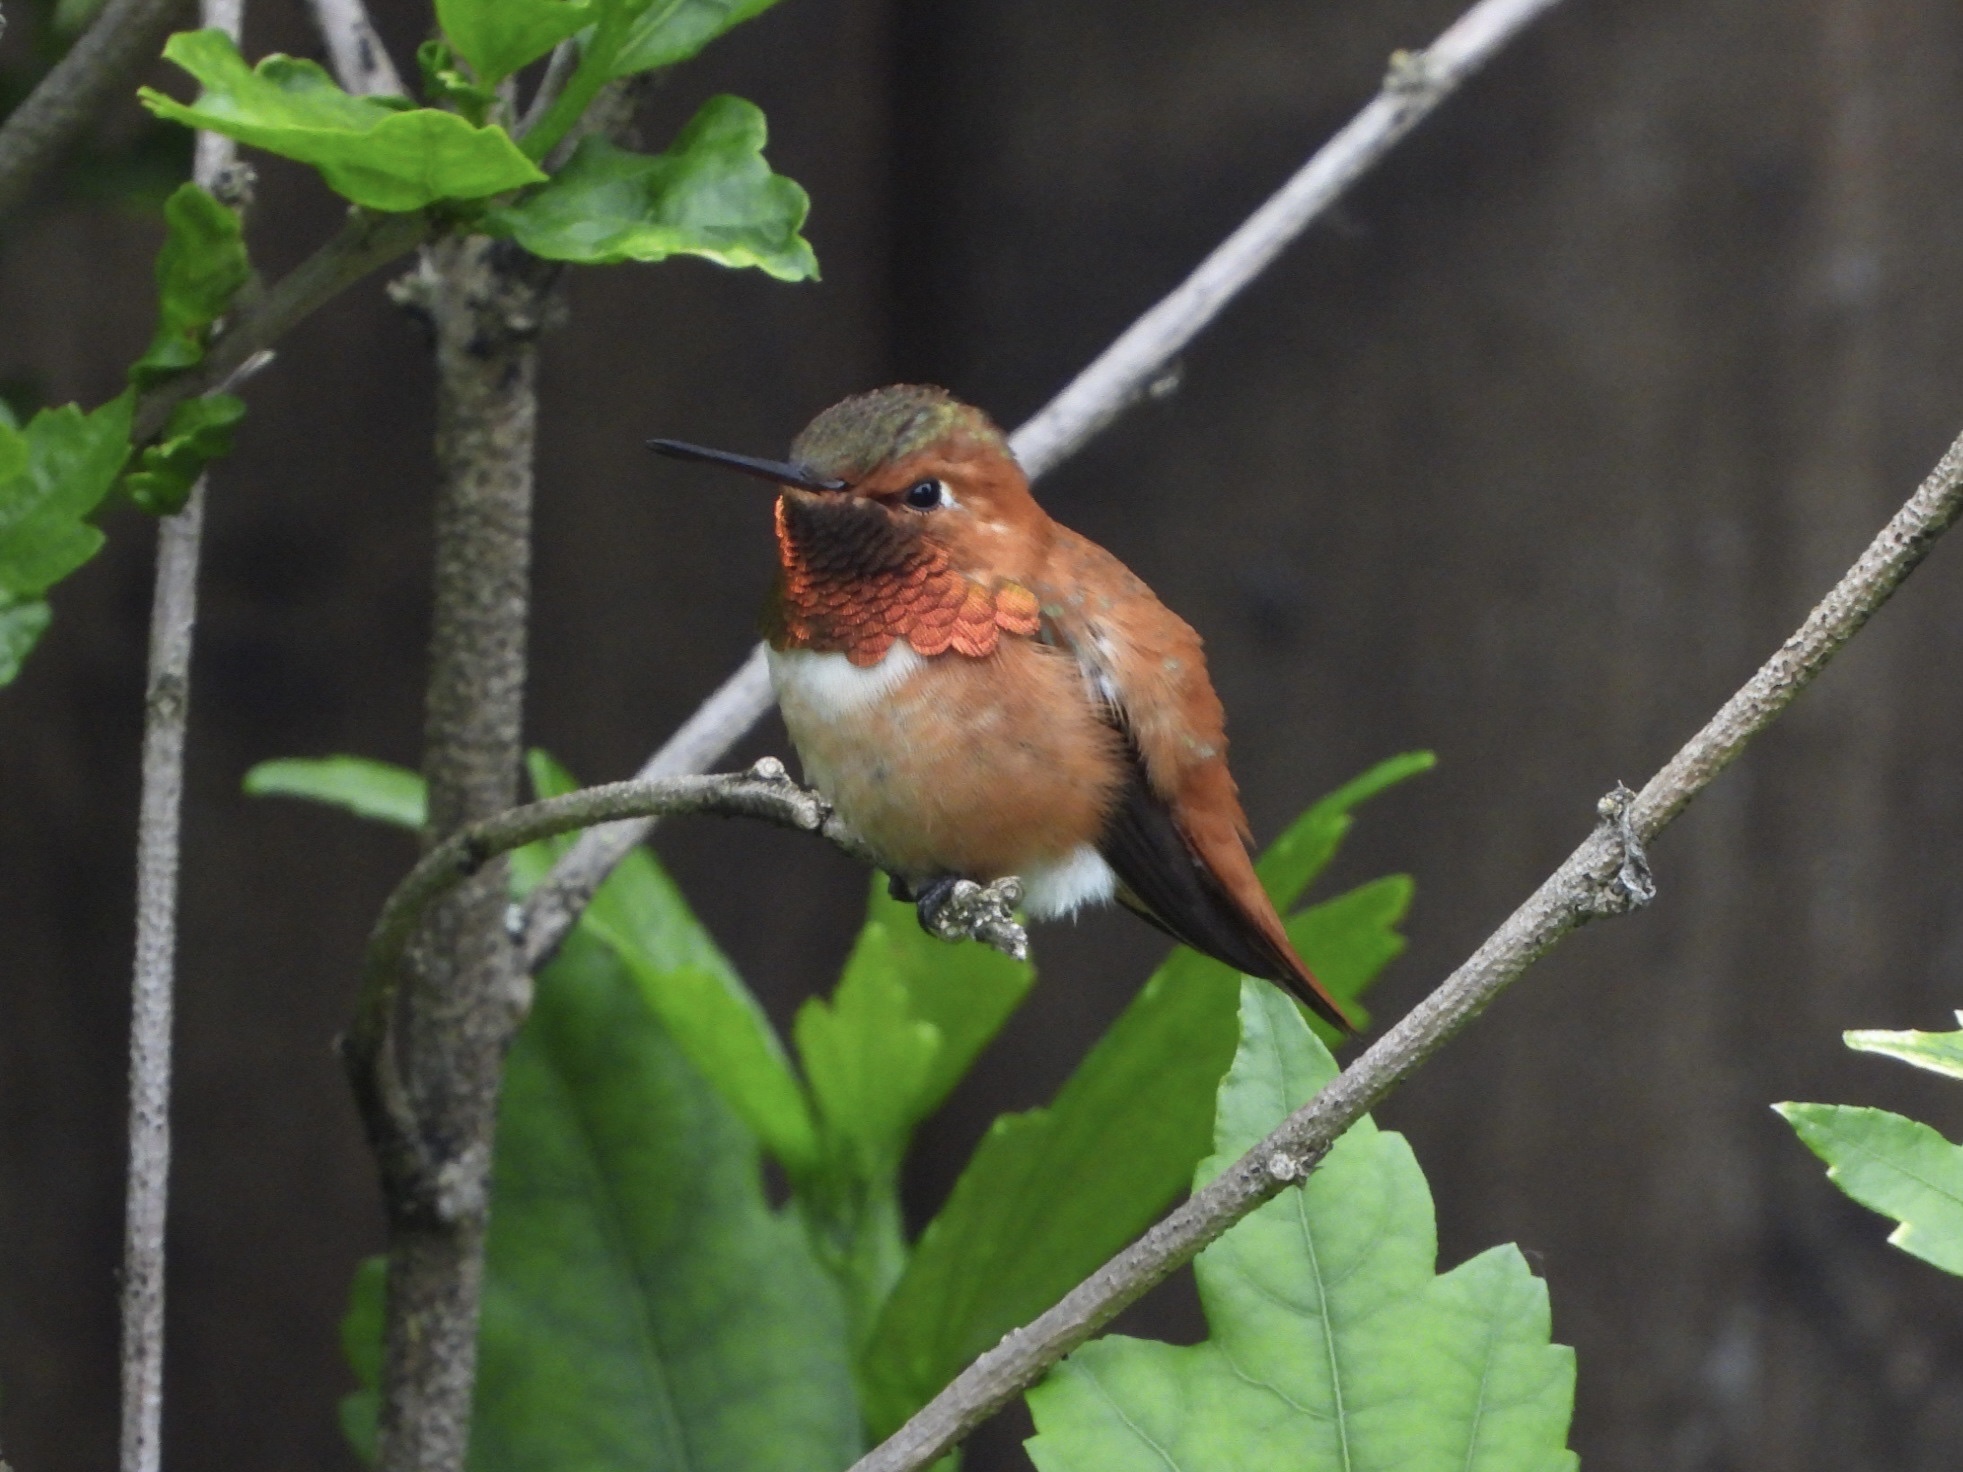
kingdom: Animalia
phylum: Chordata
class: Aves
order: Apodiformes
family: Trochilidae
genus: Selasphorus
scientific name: Selasphorus rufus
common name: Rufous hummingbird
